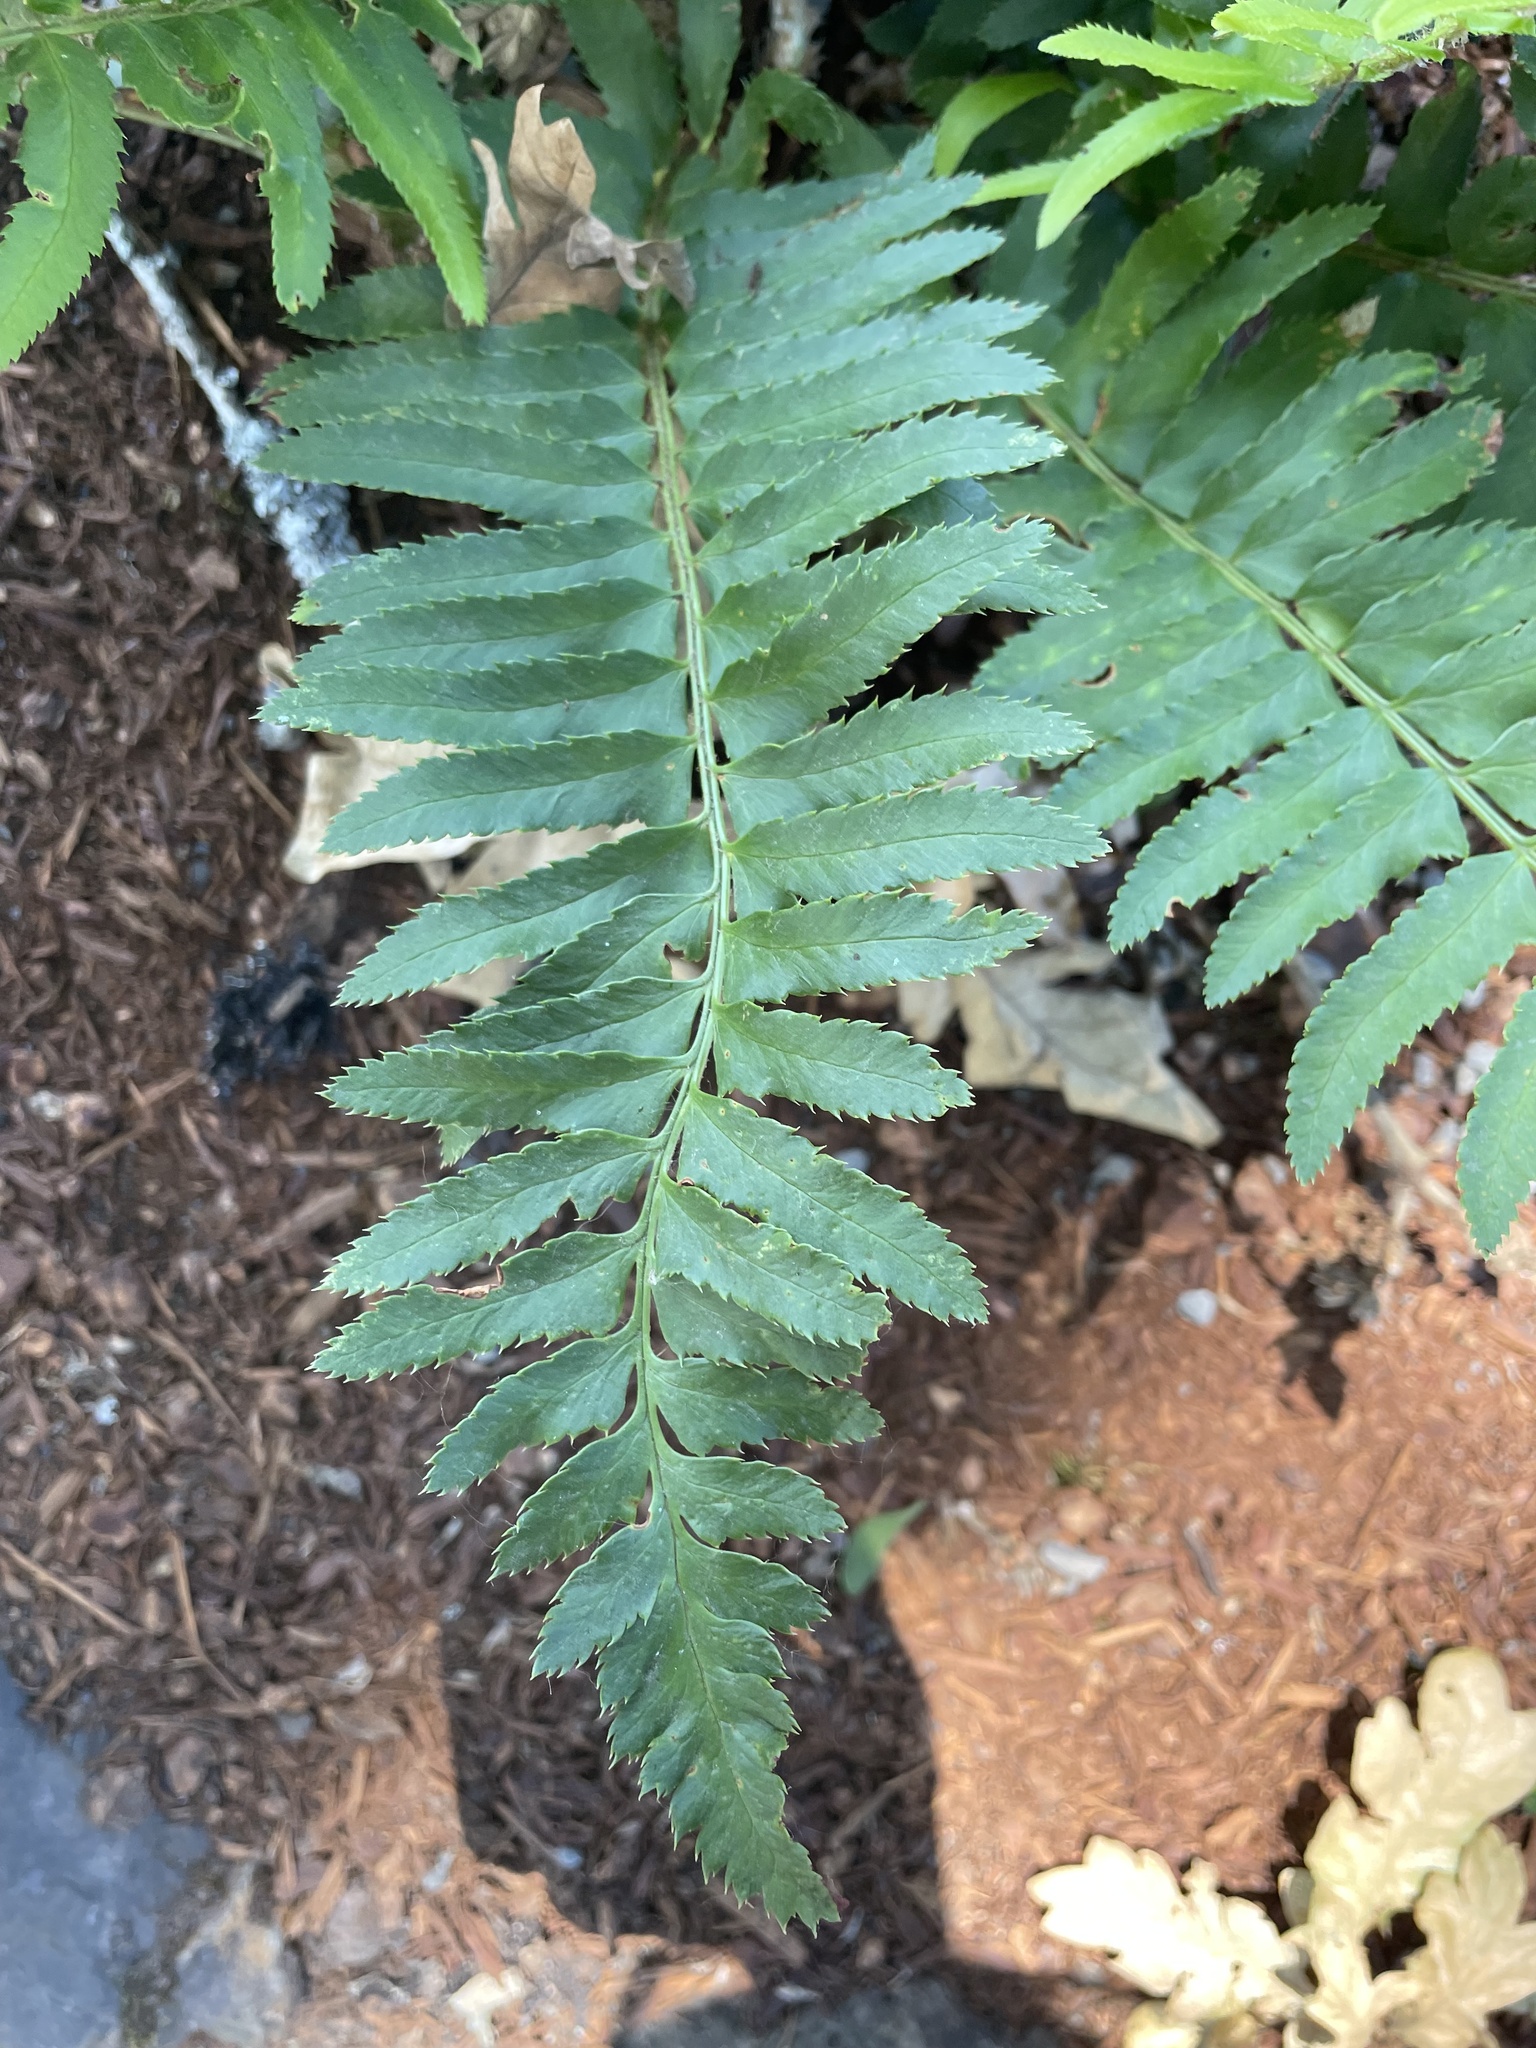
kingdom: Plantae
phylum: Tracheophyta
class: Polypodiopsida
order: Polypodiales
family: Dryopteridaceae
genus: Polystichum
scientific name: Polystichum munitum
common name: Western sword-fern
